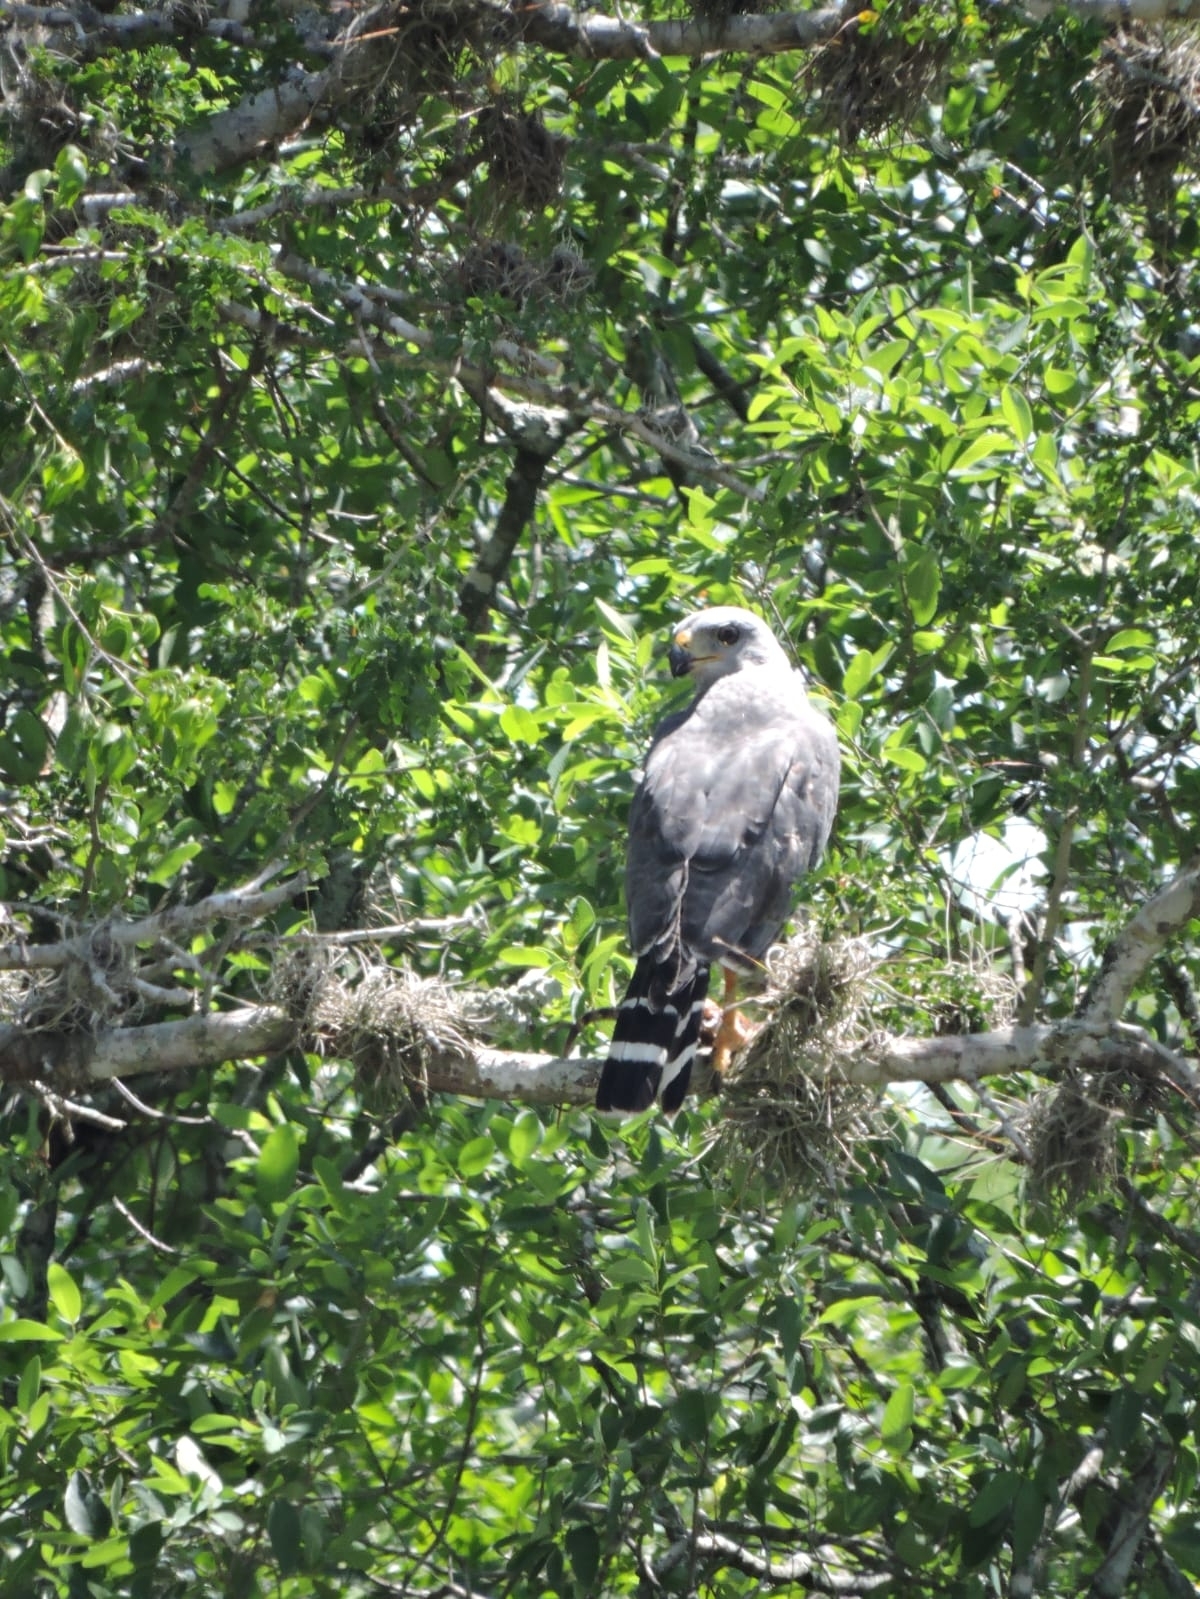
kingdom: Animalia
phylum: Chordata
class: Aves
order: Accipitriformes
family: Accipitridae
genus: Buteo
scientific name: Buteo nitidus
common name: Grey-lined hawk
